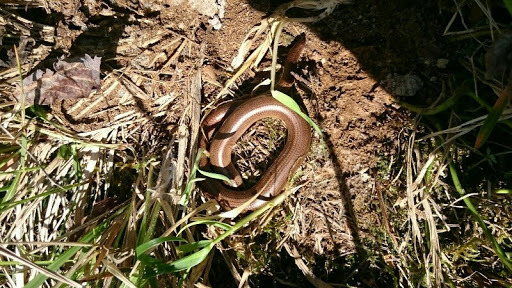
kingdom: Animalia
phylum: Chordata
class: Squamata
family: Anguidae
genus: Anguis
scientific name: Anguis fragilis
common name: Slow worm
